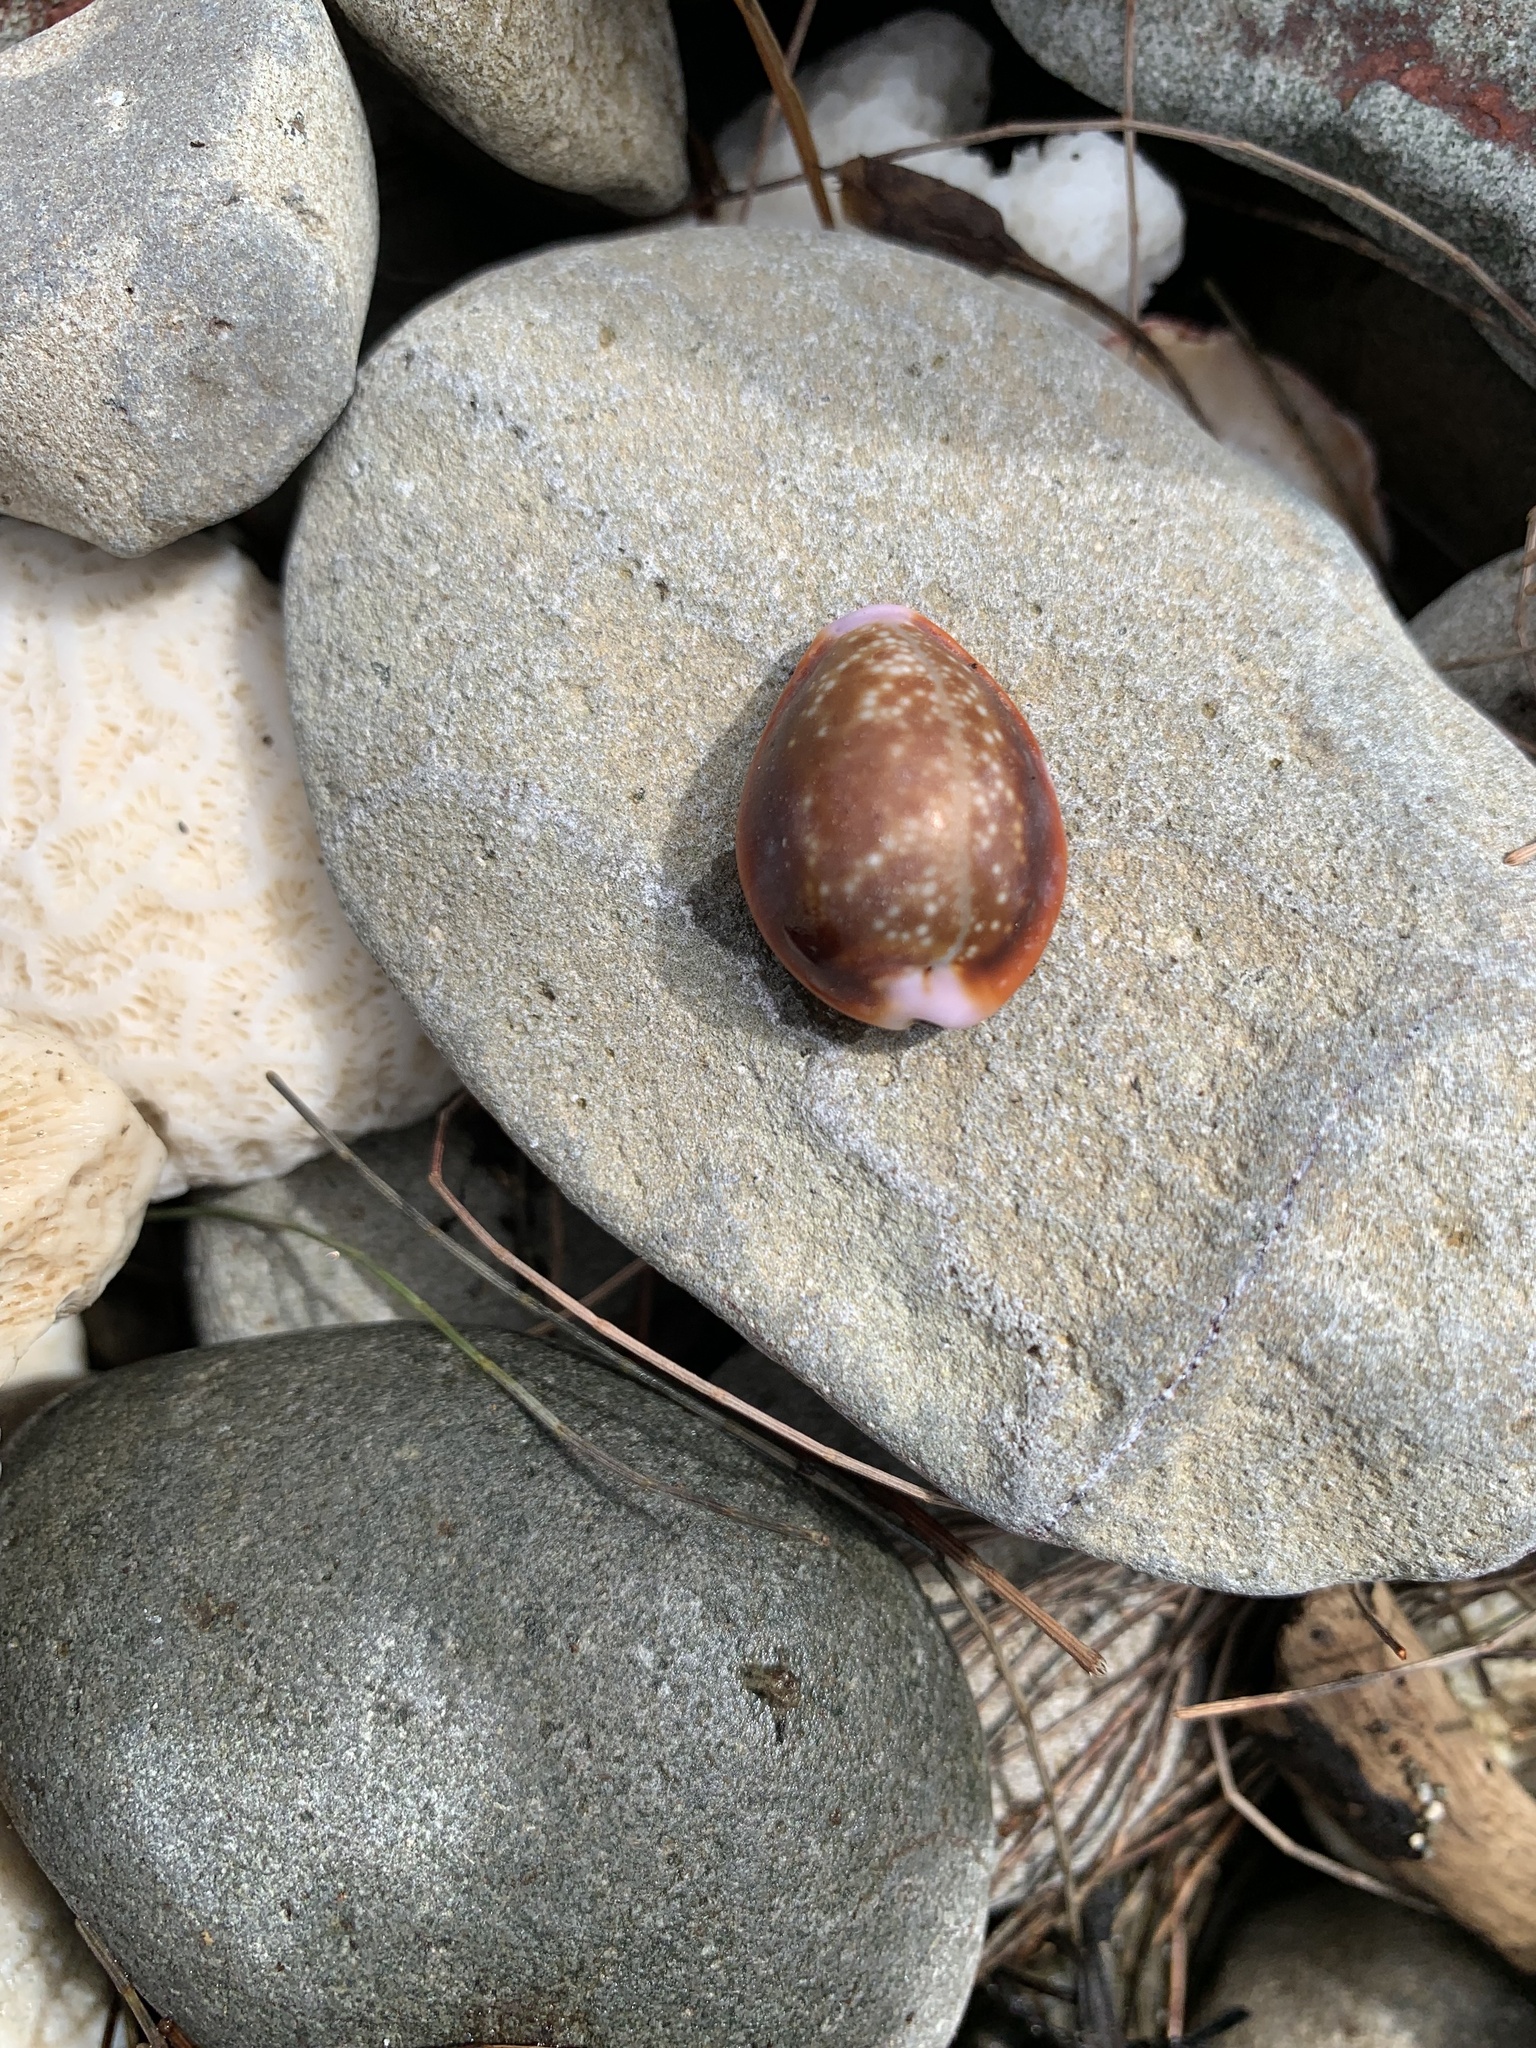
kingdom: Animalia
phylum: Mollusca
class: Gastropoda
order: Littorinimorpha
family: Cypraeidae
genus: Naria
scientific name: Naria helvola
